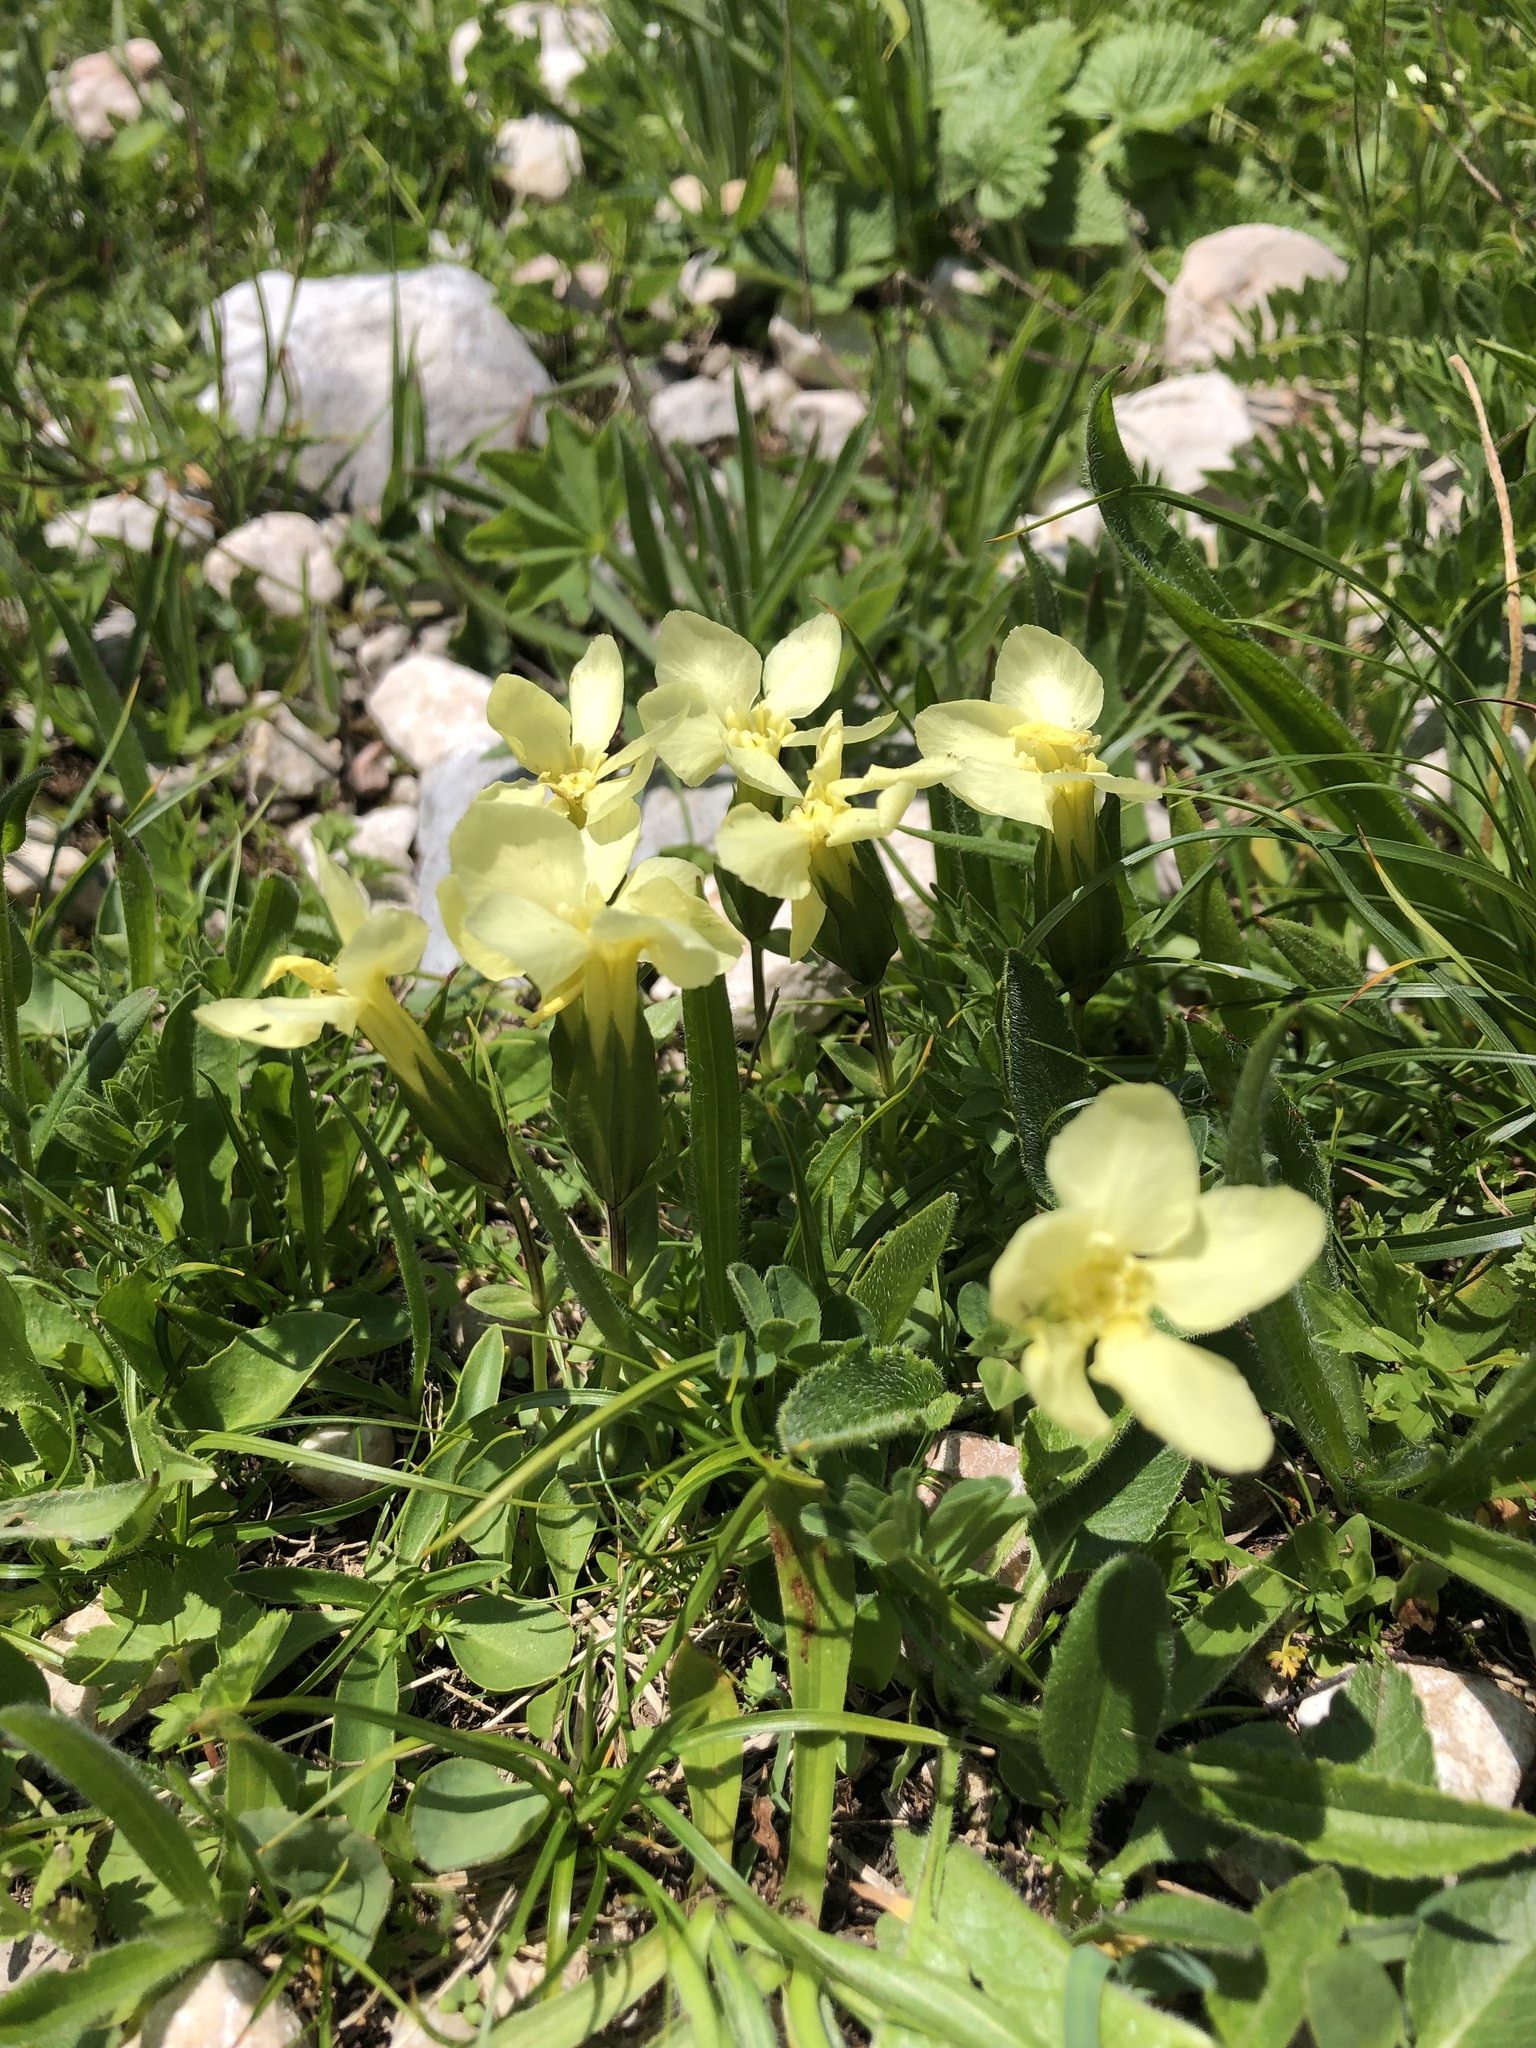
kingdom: Plantae
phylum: Tracheophyta
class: Magnoliopsida
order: Gentianales
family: Gentianaceae
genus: Gentiana
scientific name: Gentiana verna
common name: Spring gentian
